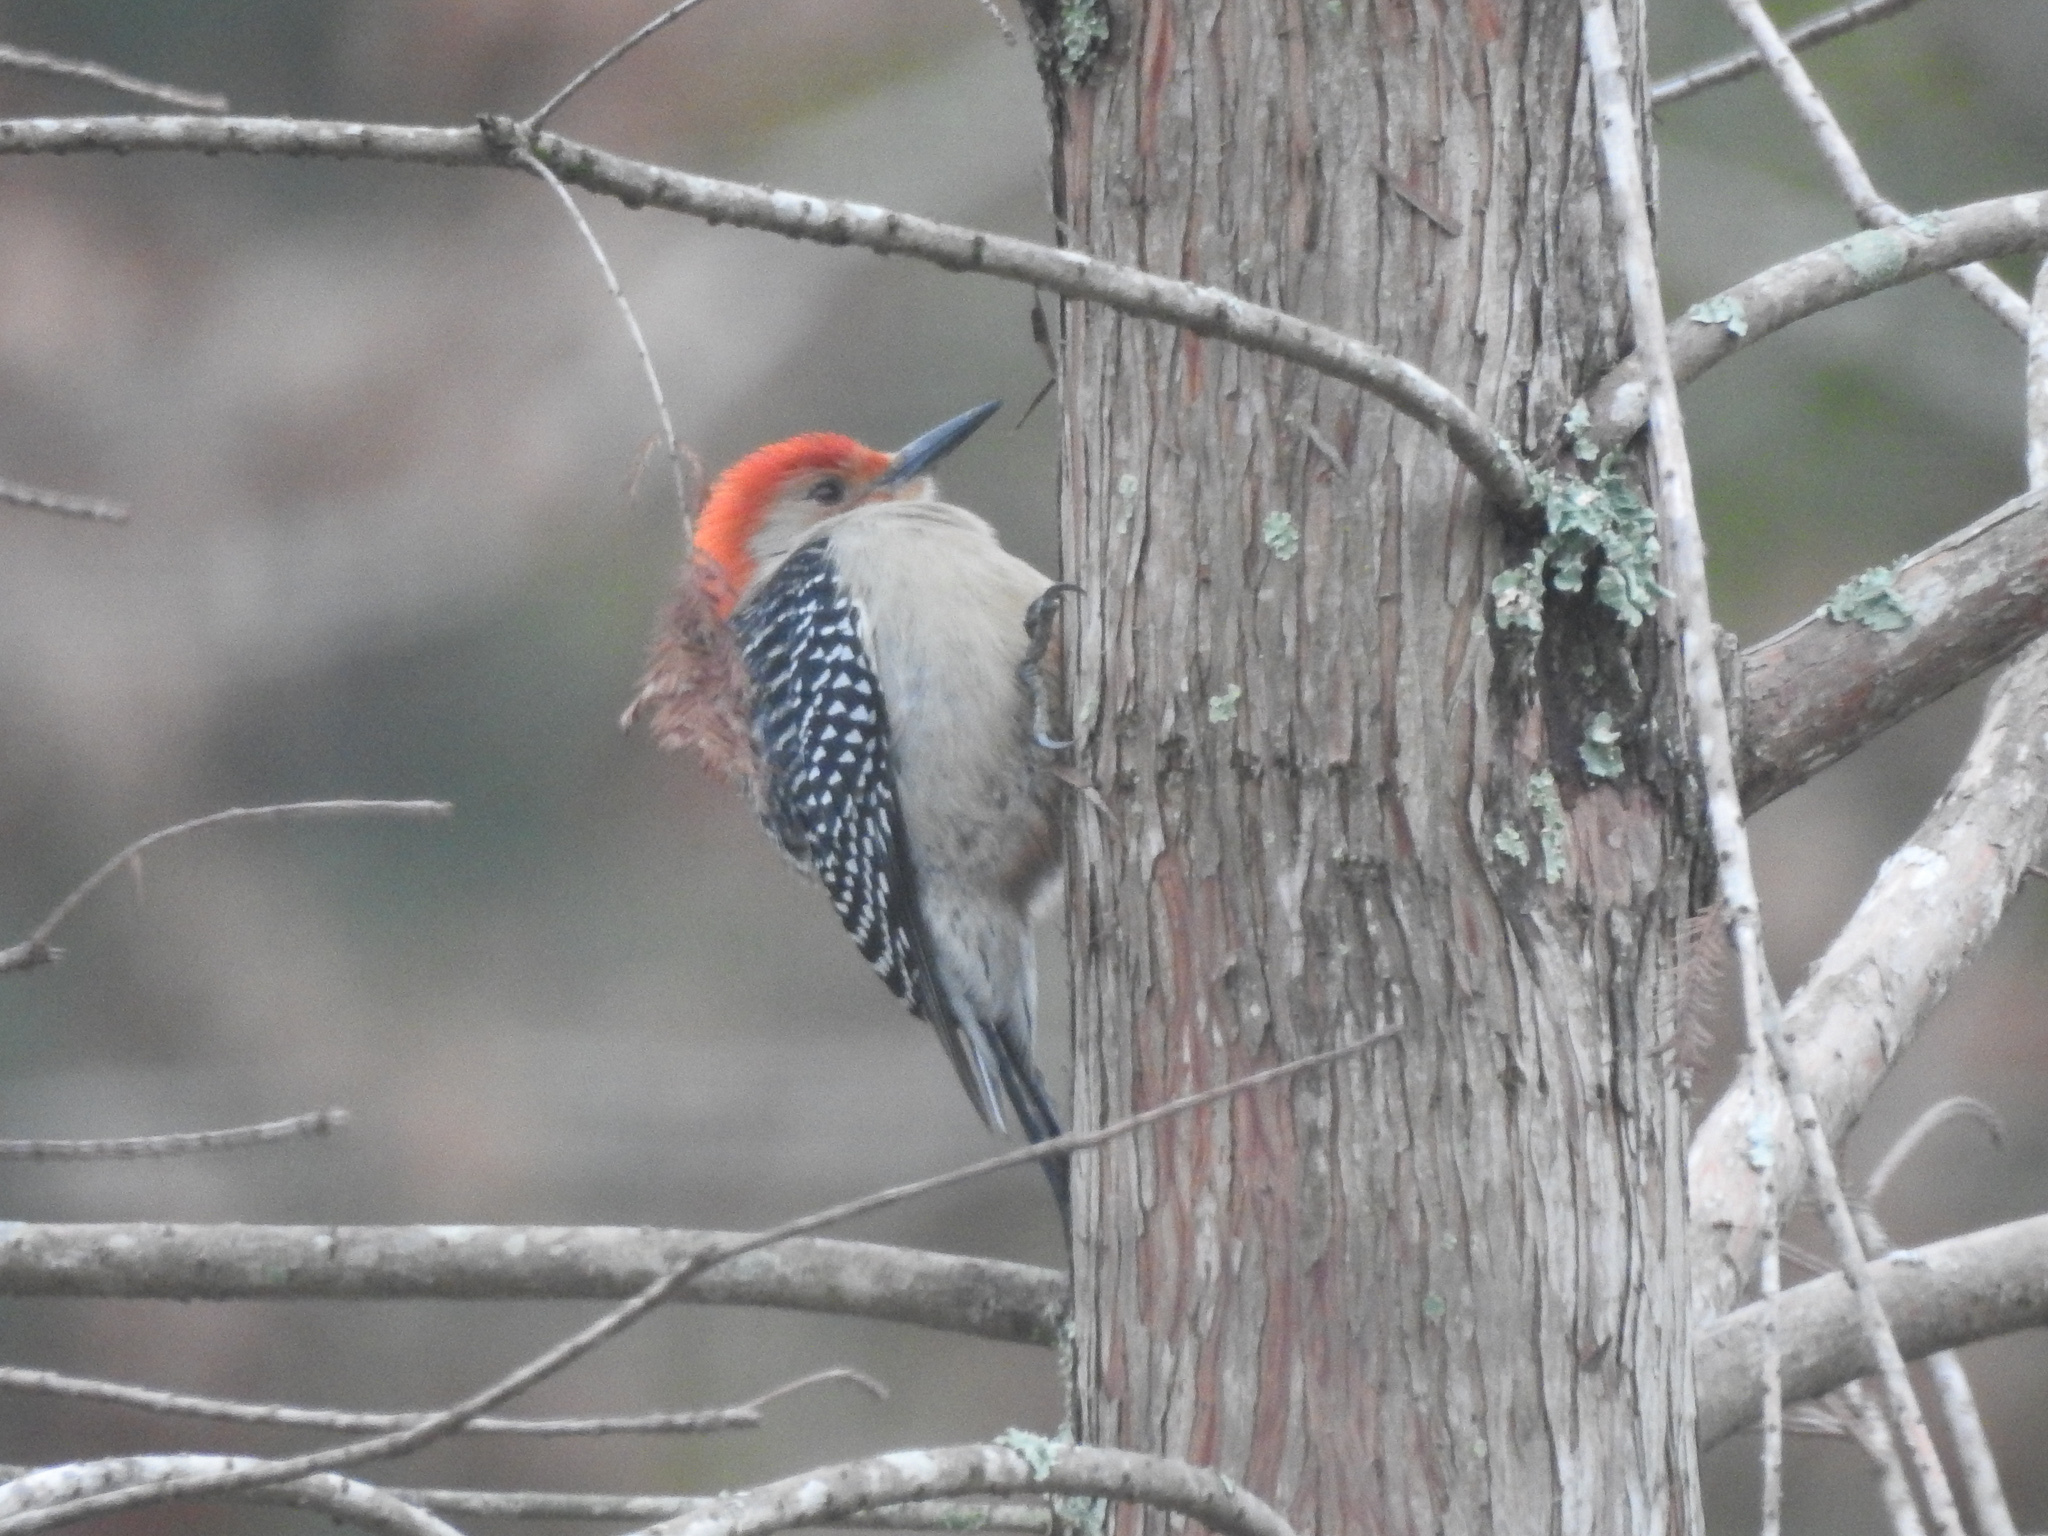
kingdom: Animalia
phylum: Chordata
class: Aves
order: Piciformes
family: Picidae
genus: Melanerpes
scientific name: Melanerpes carolinus
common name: Red-bellied woodpecker
